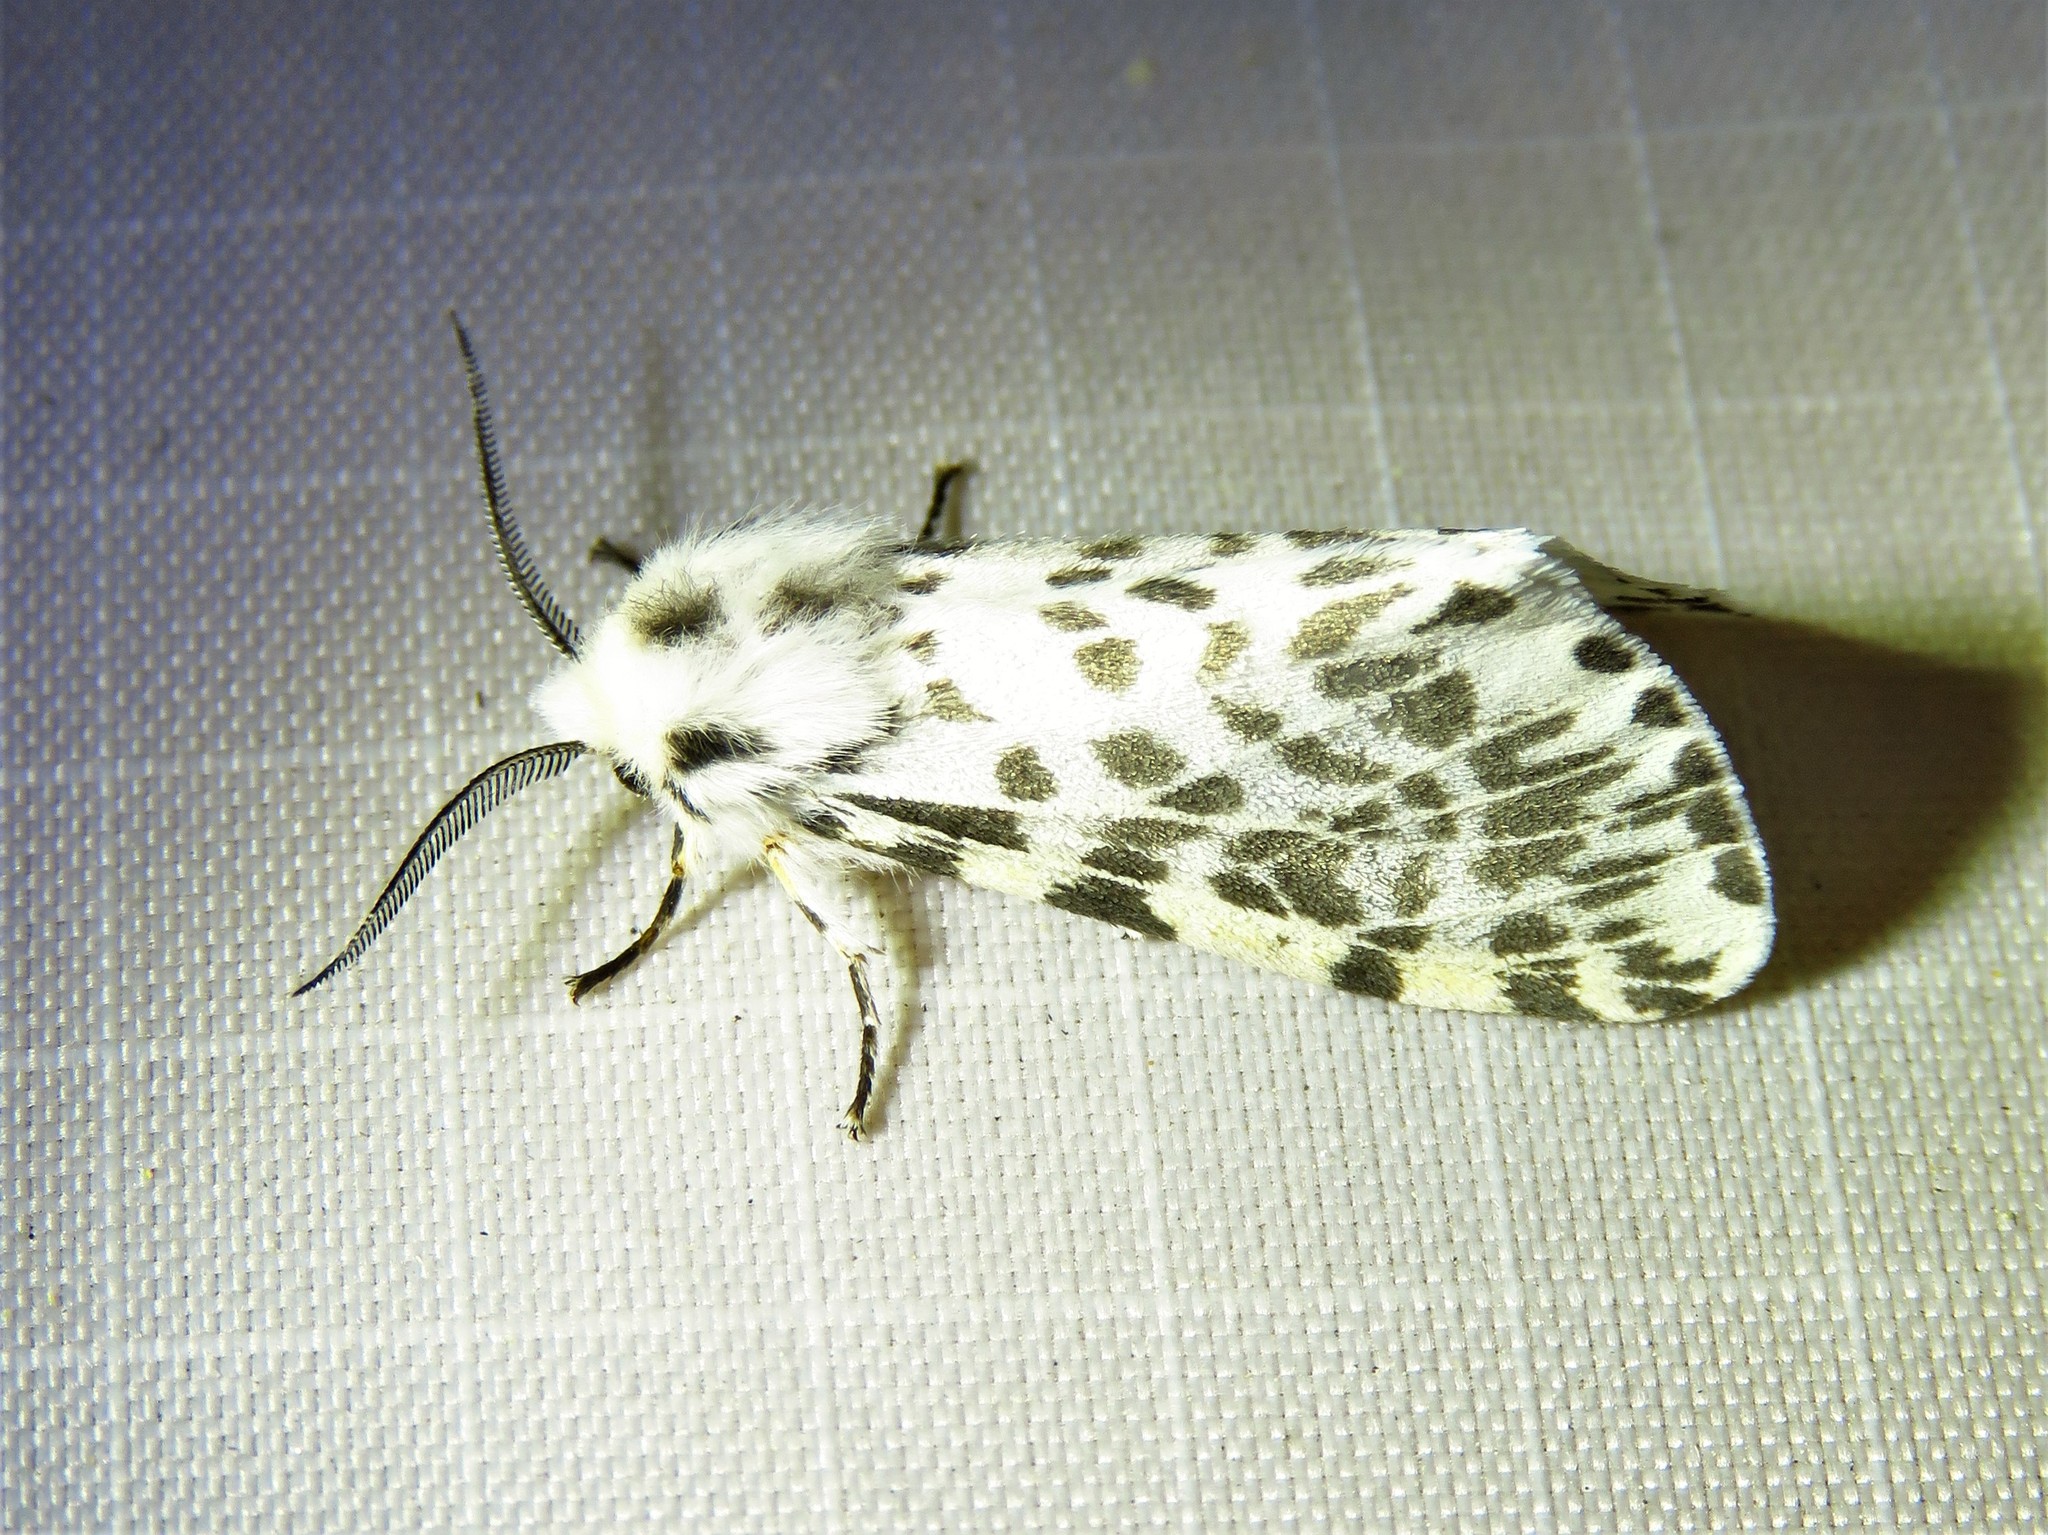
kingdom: Animalia
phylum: Arthropoda
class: Insecta
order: Lepidoptera
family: Erebidae
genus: Hyphantria
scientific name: Hyphantria cunea
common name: American white moth
